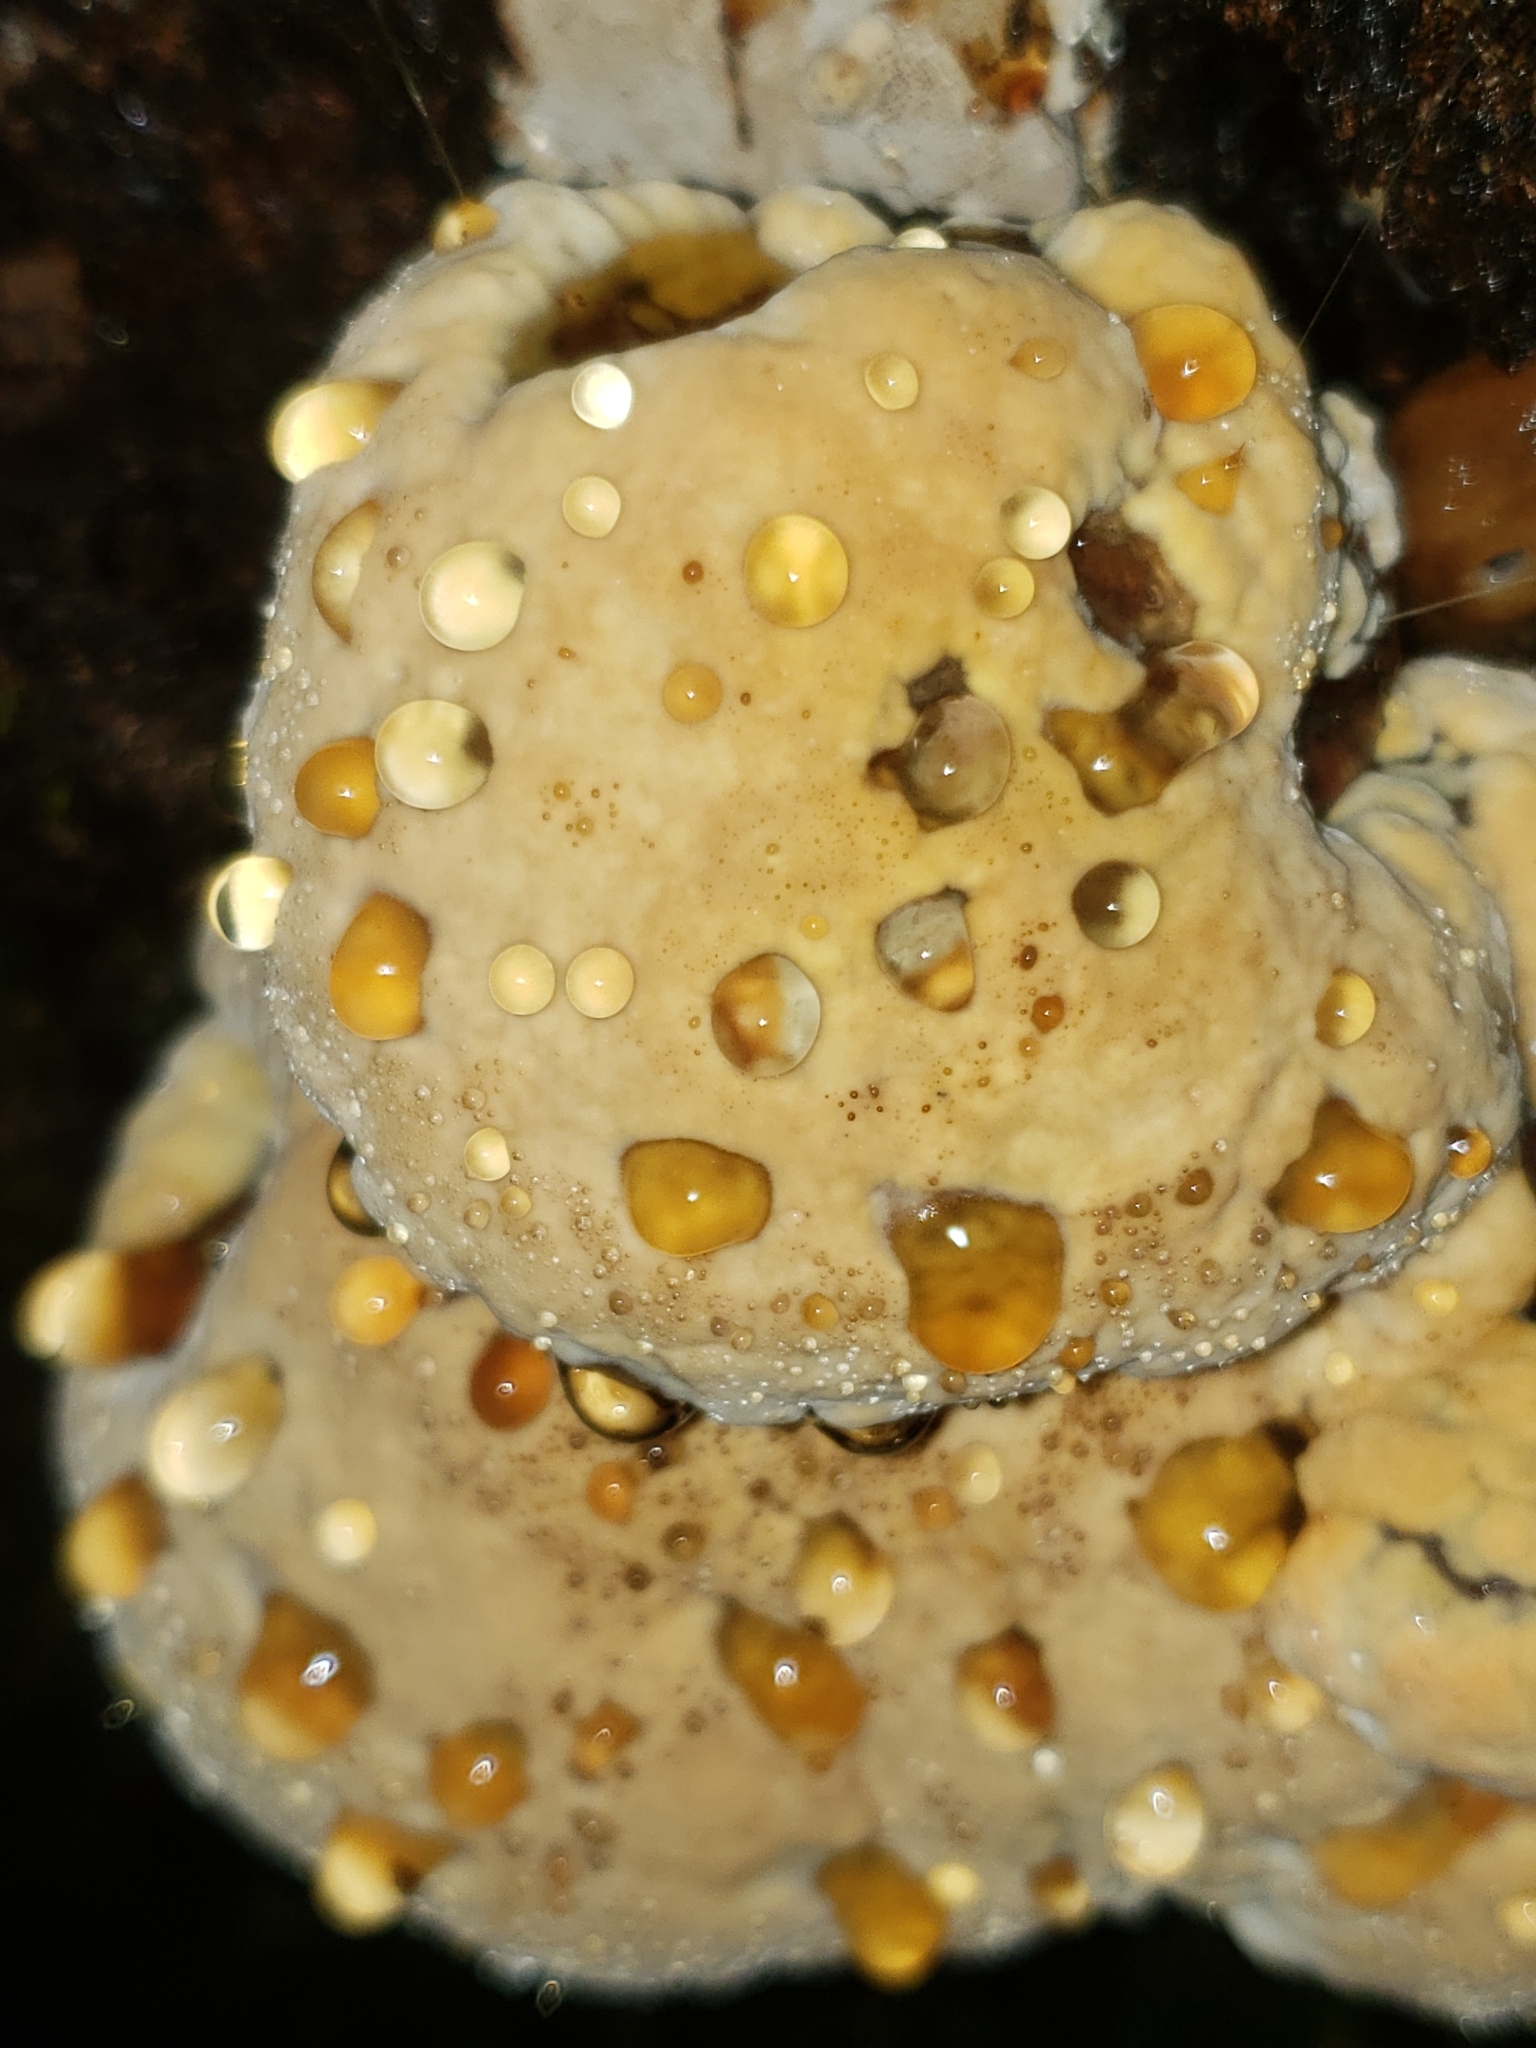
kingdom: Fungi
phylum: Basidiomycota
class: Agaricomycetes
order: Hymenochaetales
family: Hymenochaetaceae
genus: Pseudoinonotus
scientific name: Pseudoinonotus dryadeus
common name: Oak bracket
